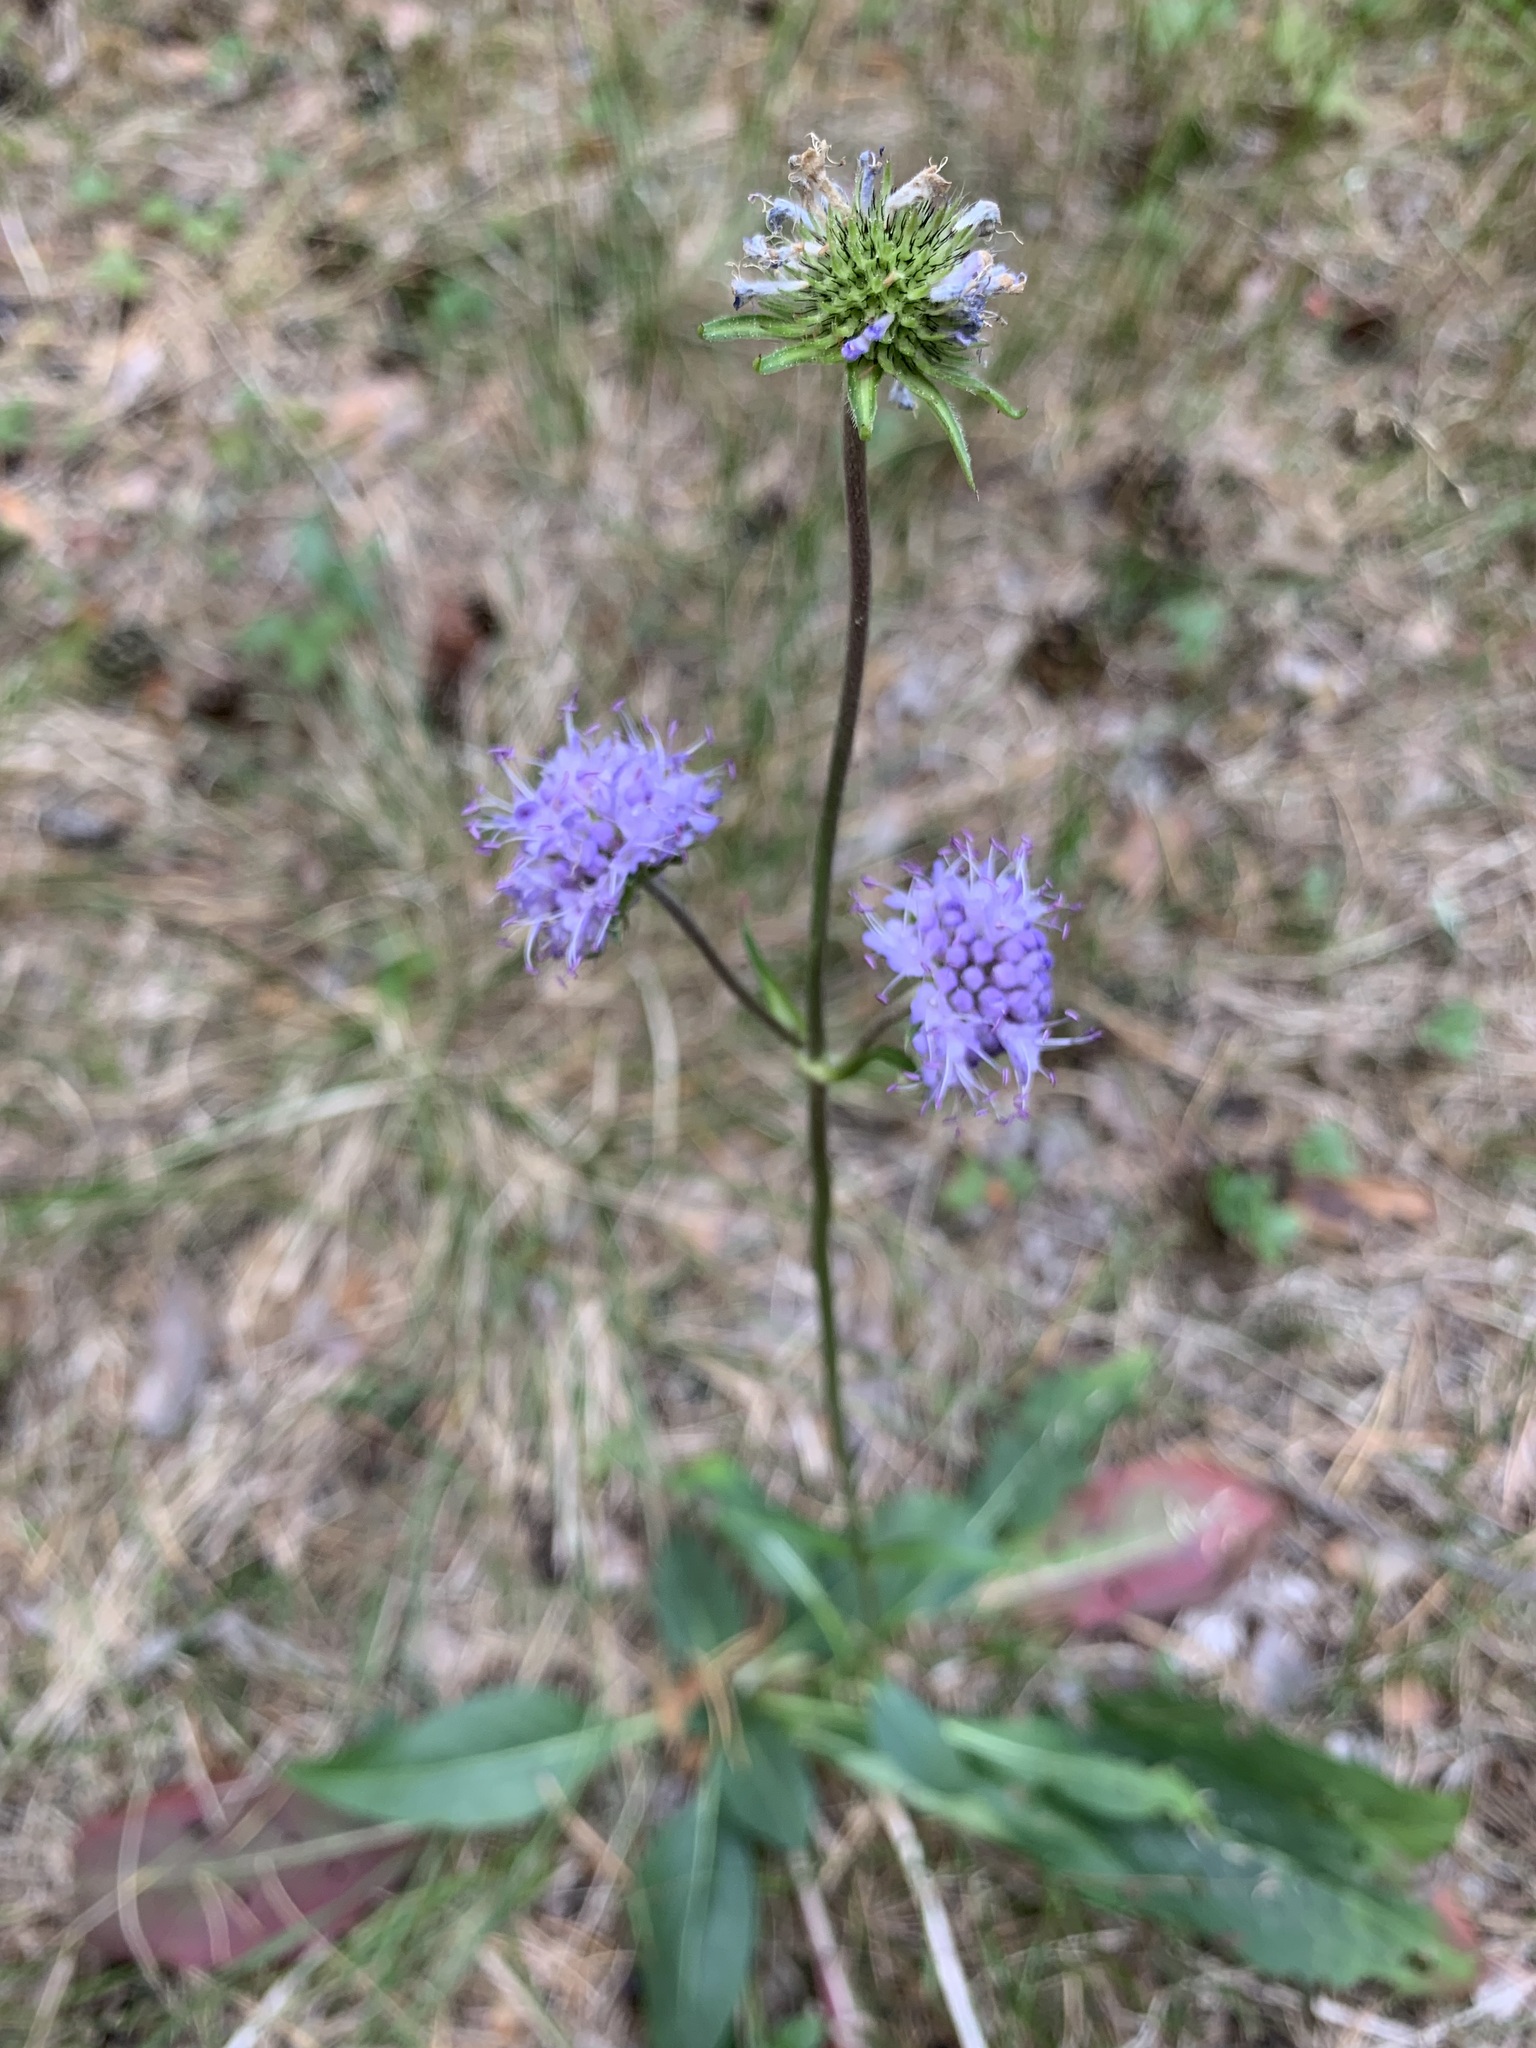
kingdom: Plantae
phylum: Tracheophyta
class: Magnoliopsida
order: Dipsacales
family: Caprifoliaceae
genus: Succisa
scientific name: Succisa pratensis
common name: Devil's-bit
